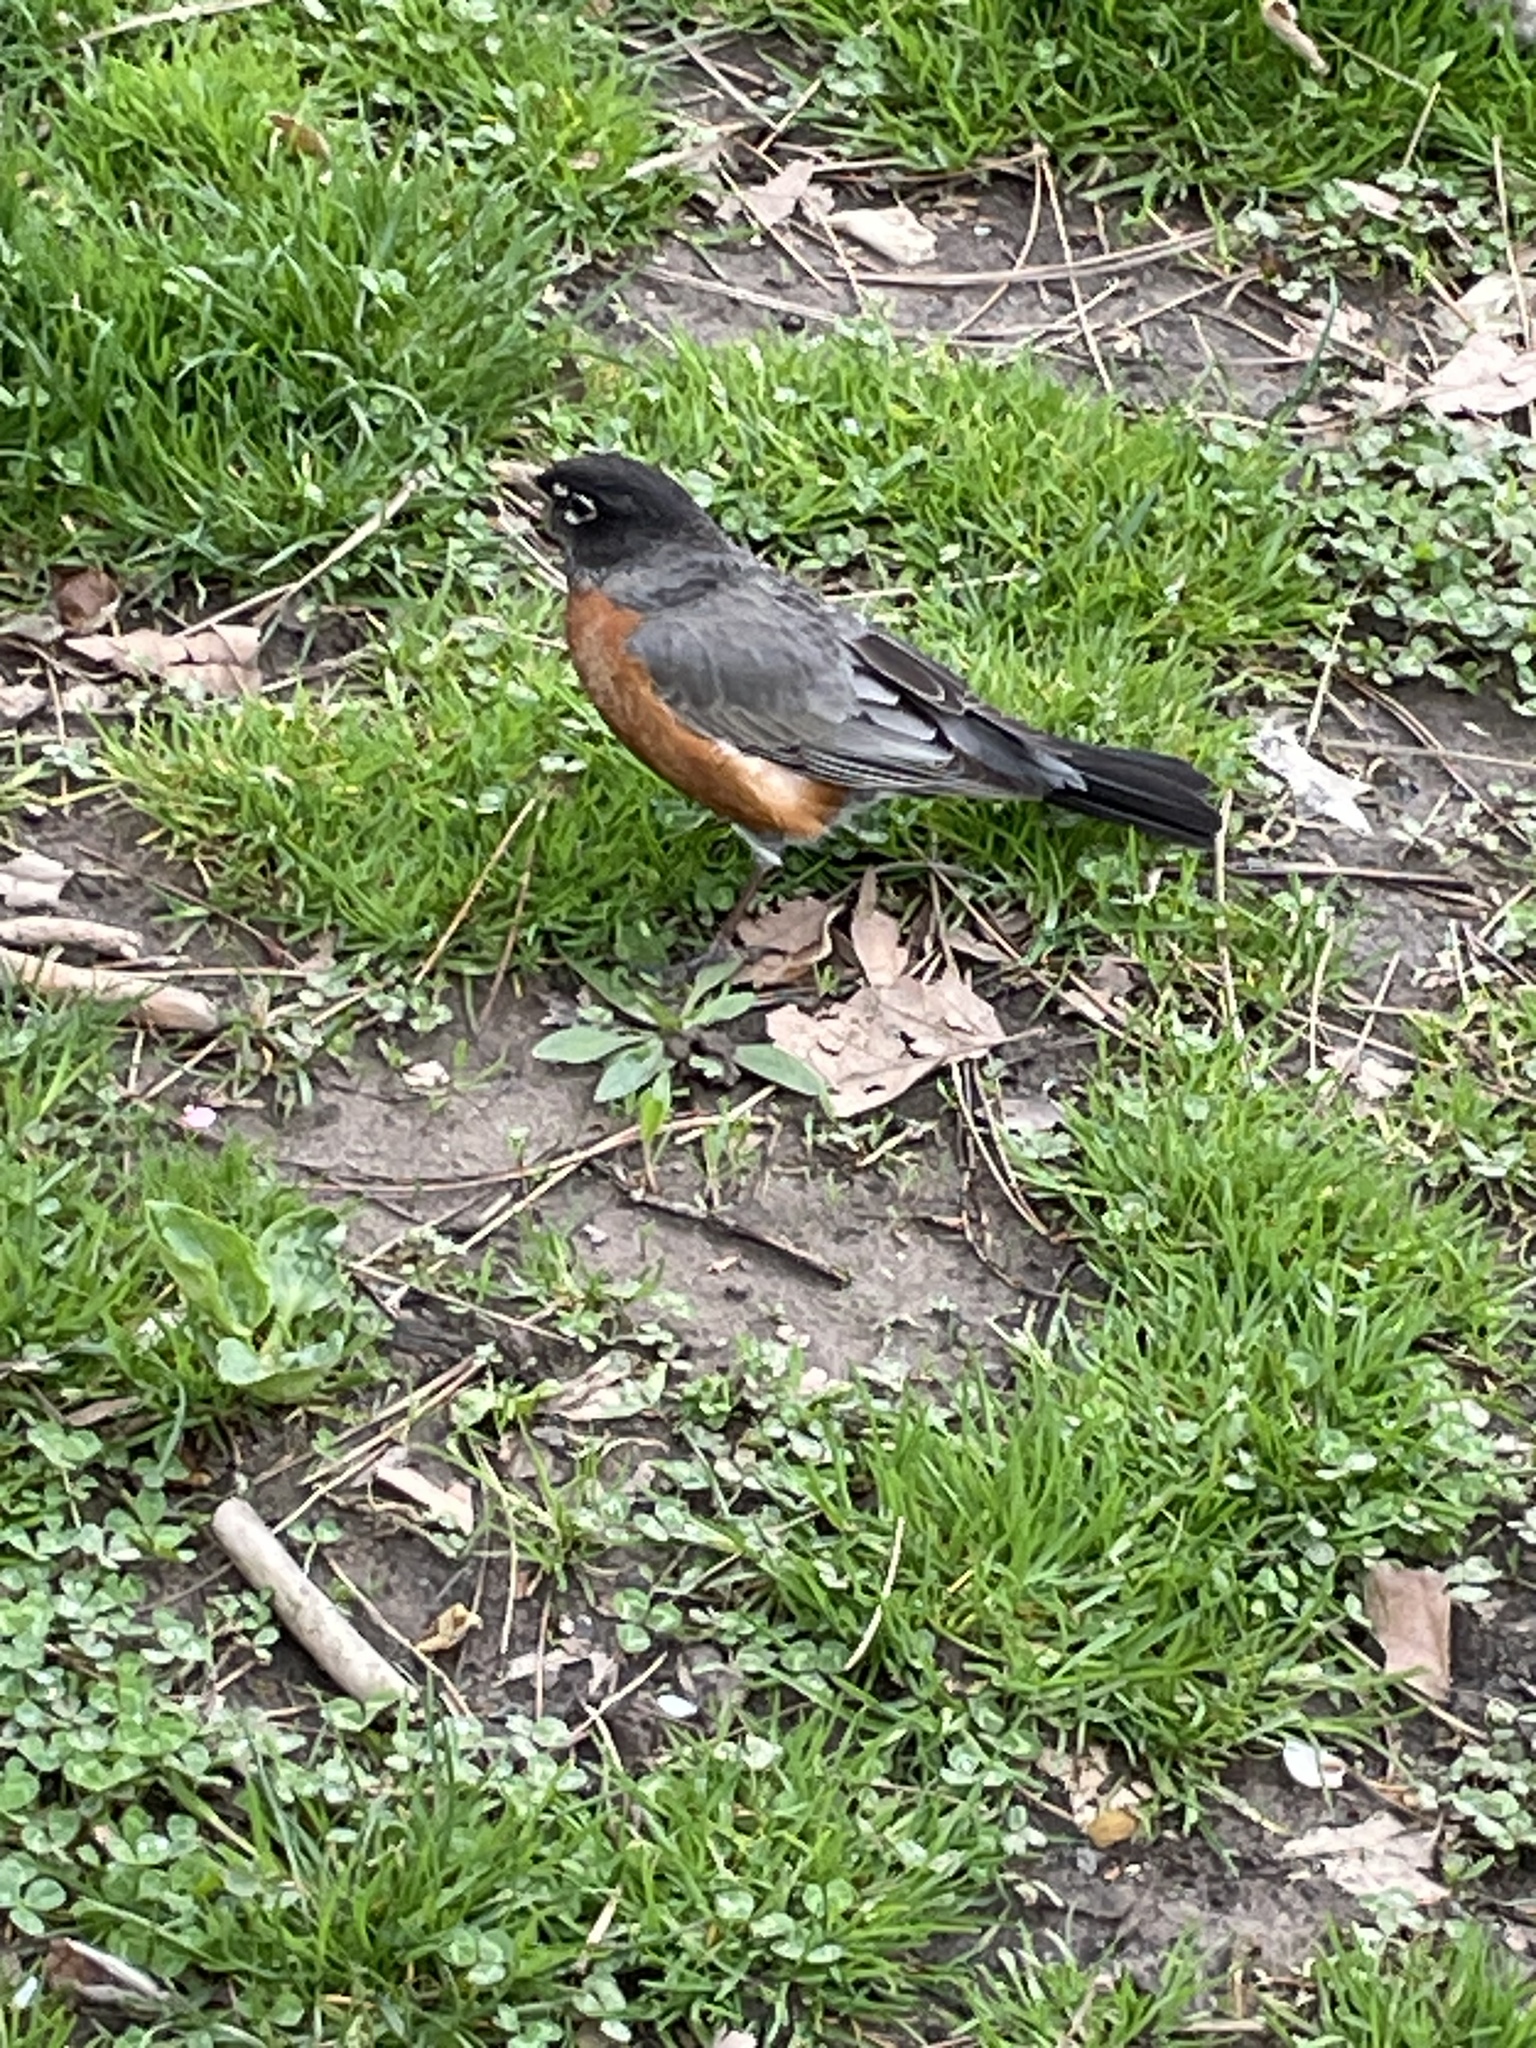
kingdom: Animalia
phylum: Chordata
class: Aves
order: Passeriformes
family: Turdidae
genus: Turdus
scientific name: Turdus migratorius
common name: American robin
